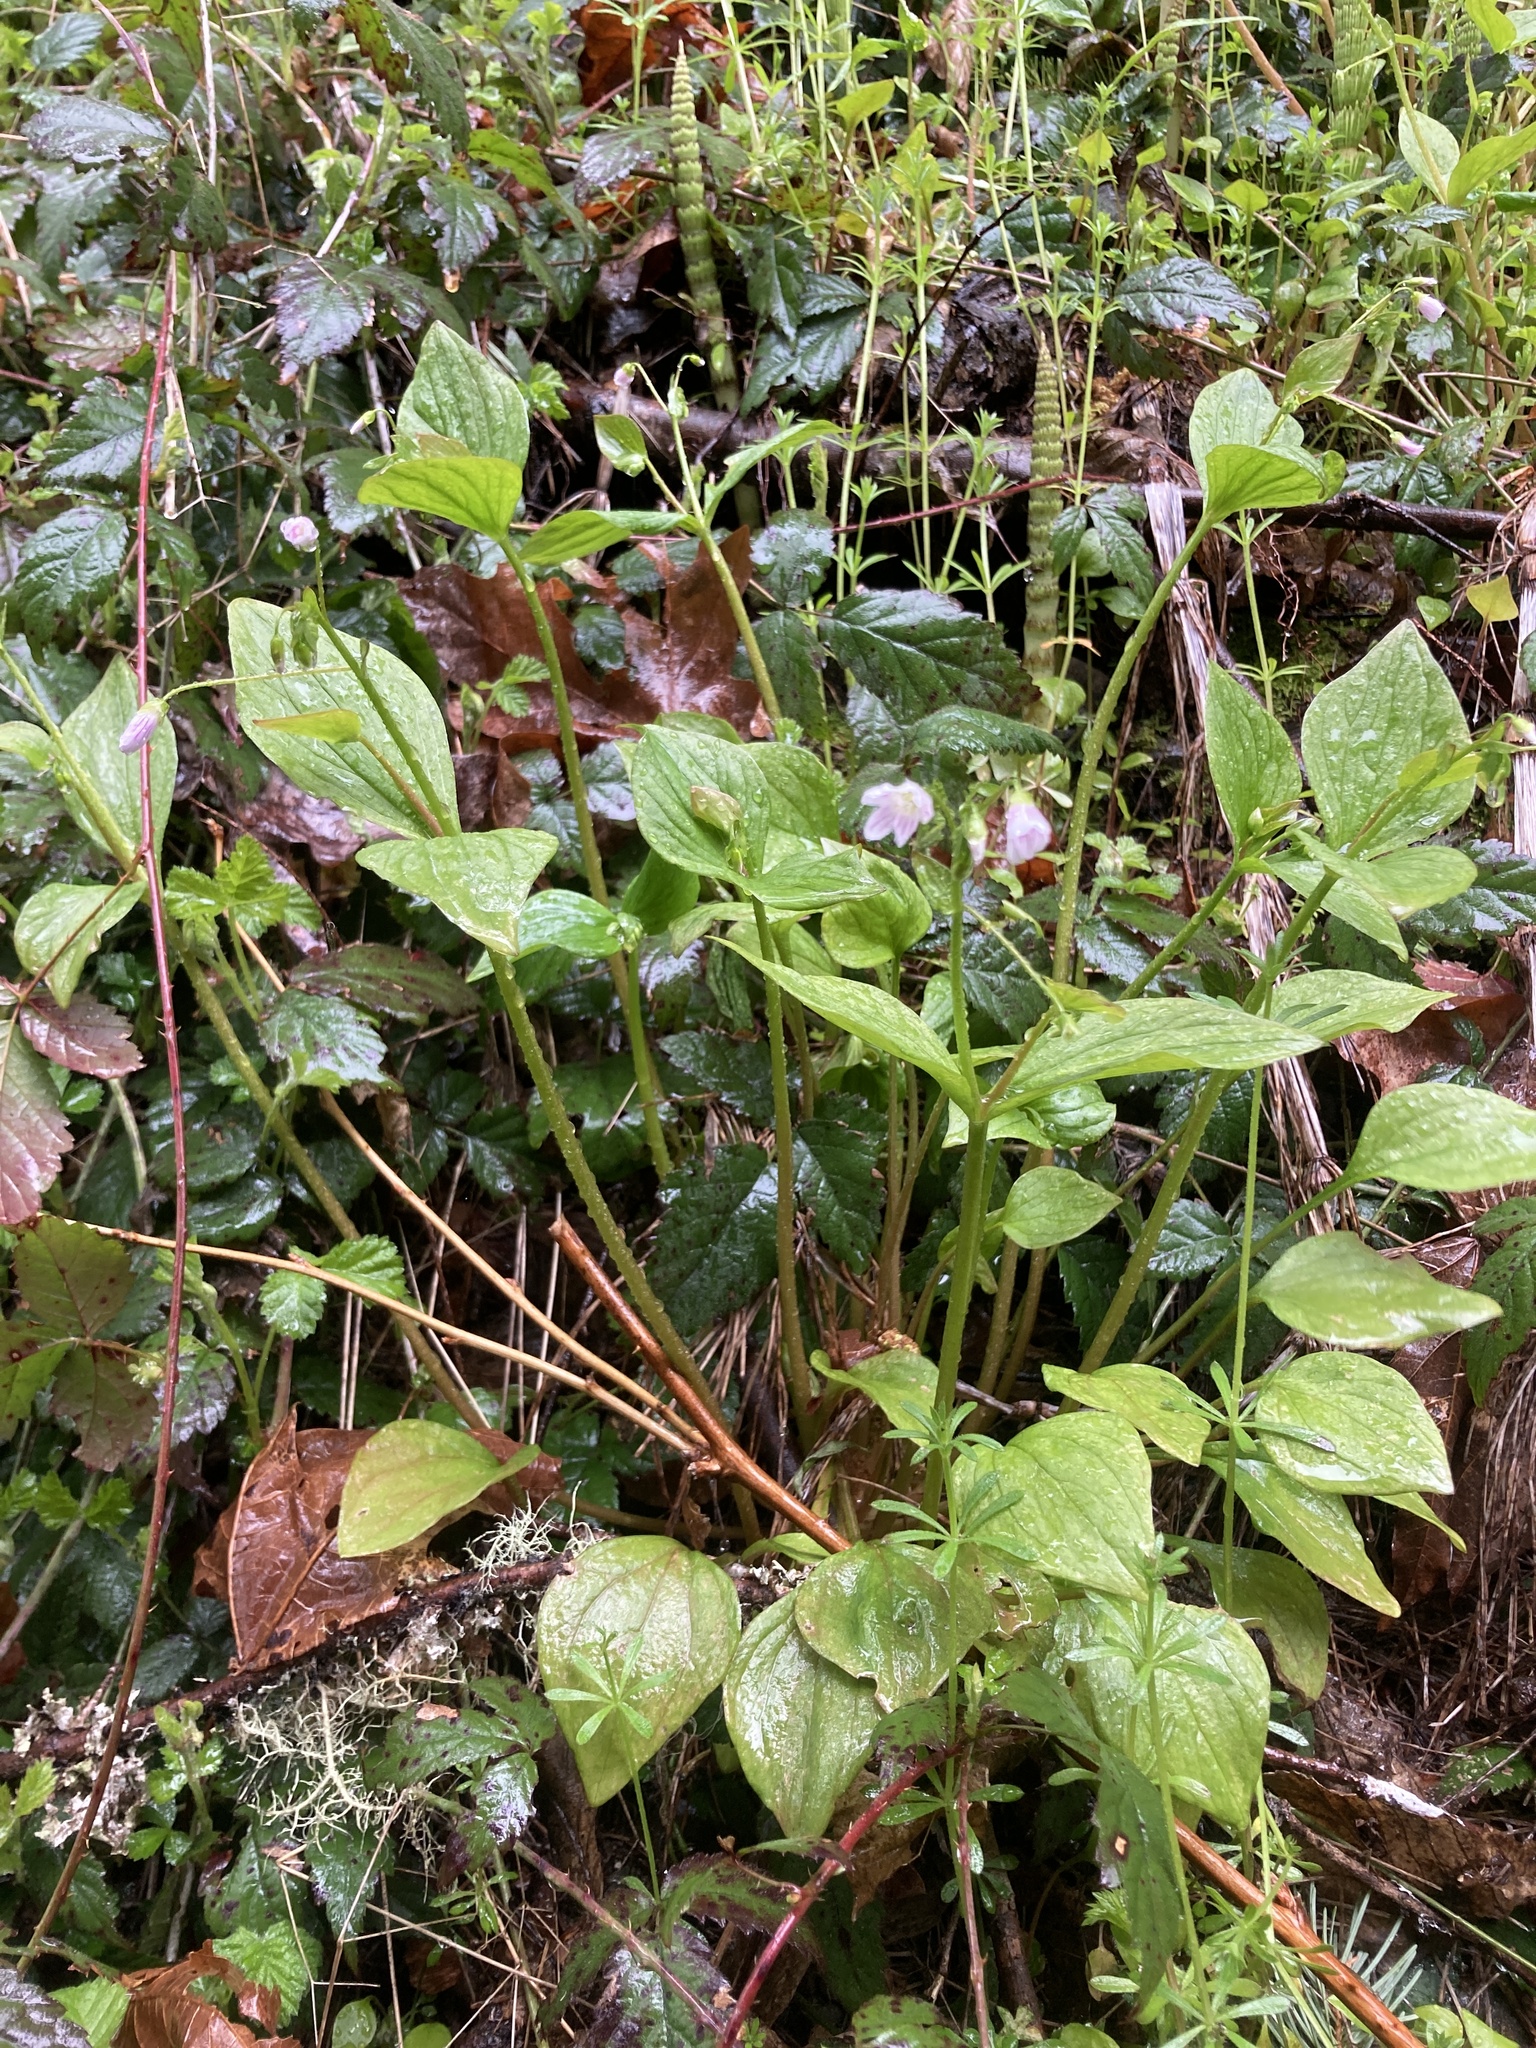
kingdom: Plantae
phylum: Tracheophyta
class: Magnoliopsida
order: Caryophyllales
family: Montiaceae
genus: Claytonia
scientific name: Claytonia sibirica
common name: Pink purslane
